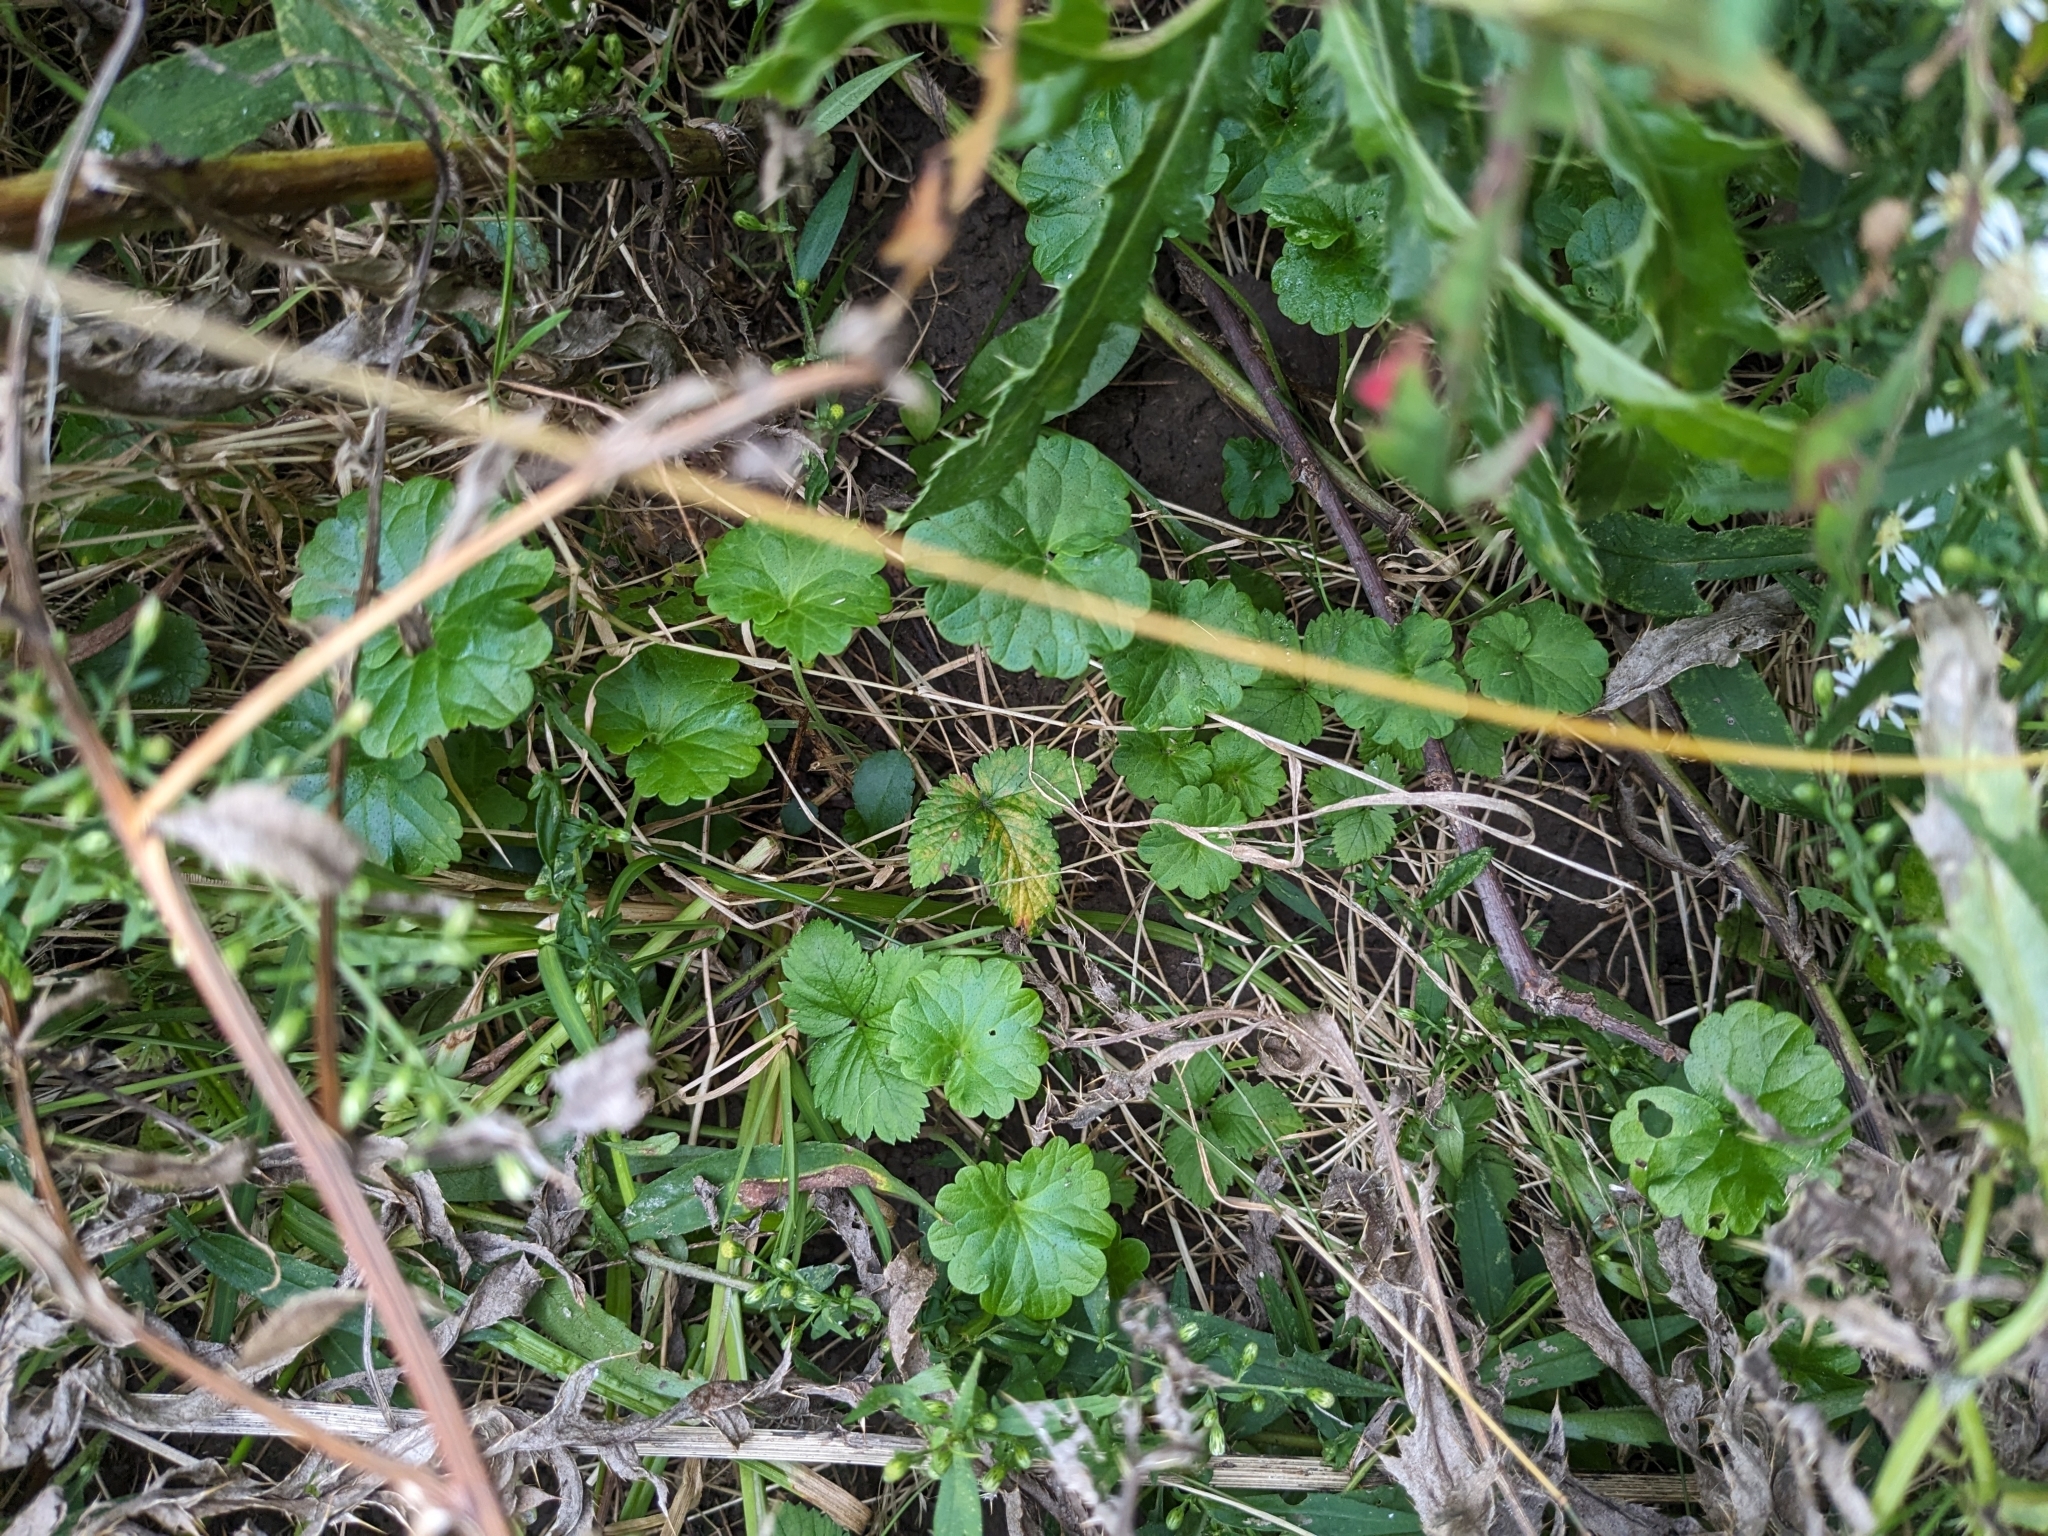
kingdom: Plantae
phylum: Tracheophyta
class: Magnoliopsida
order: Lamiales
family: Lamiaceae
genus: Glechoma
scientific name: Glechoma hederacea
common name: Ground ivy
